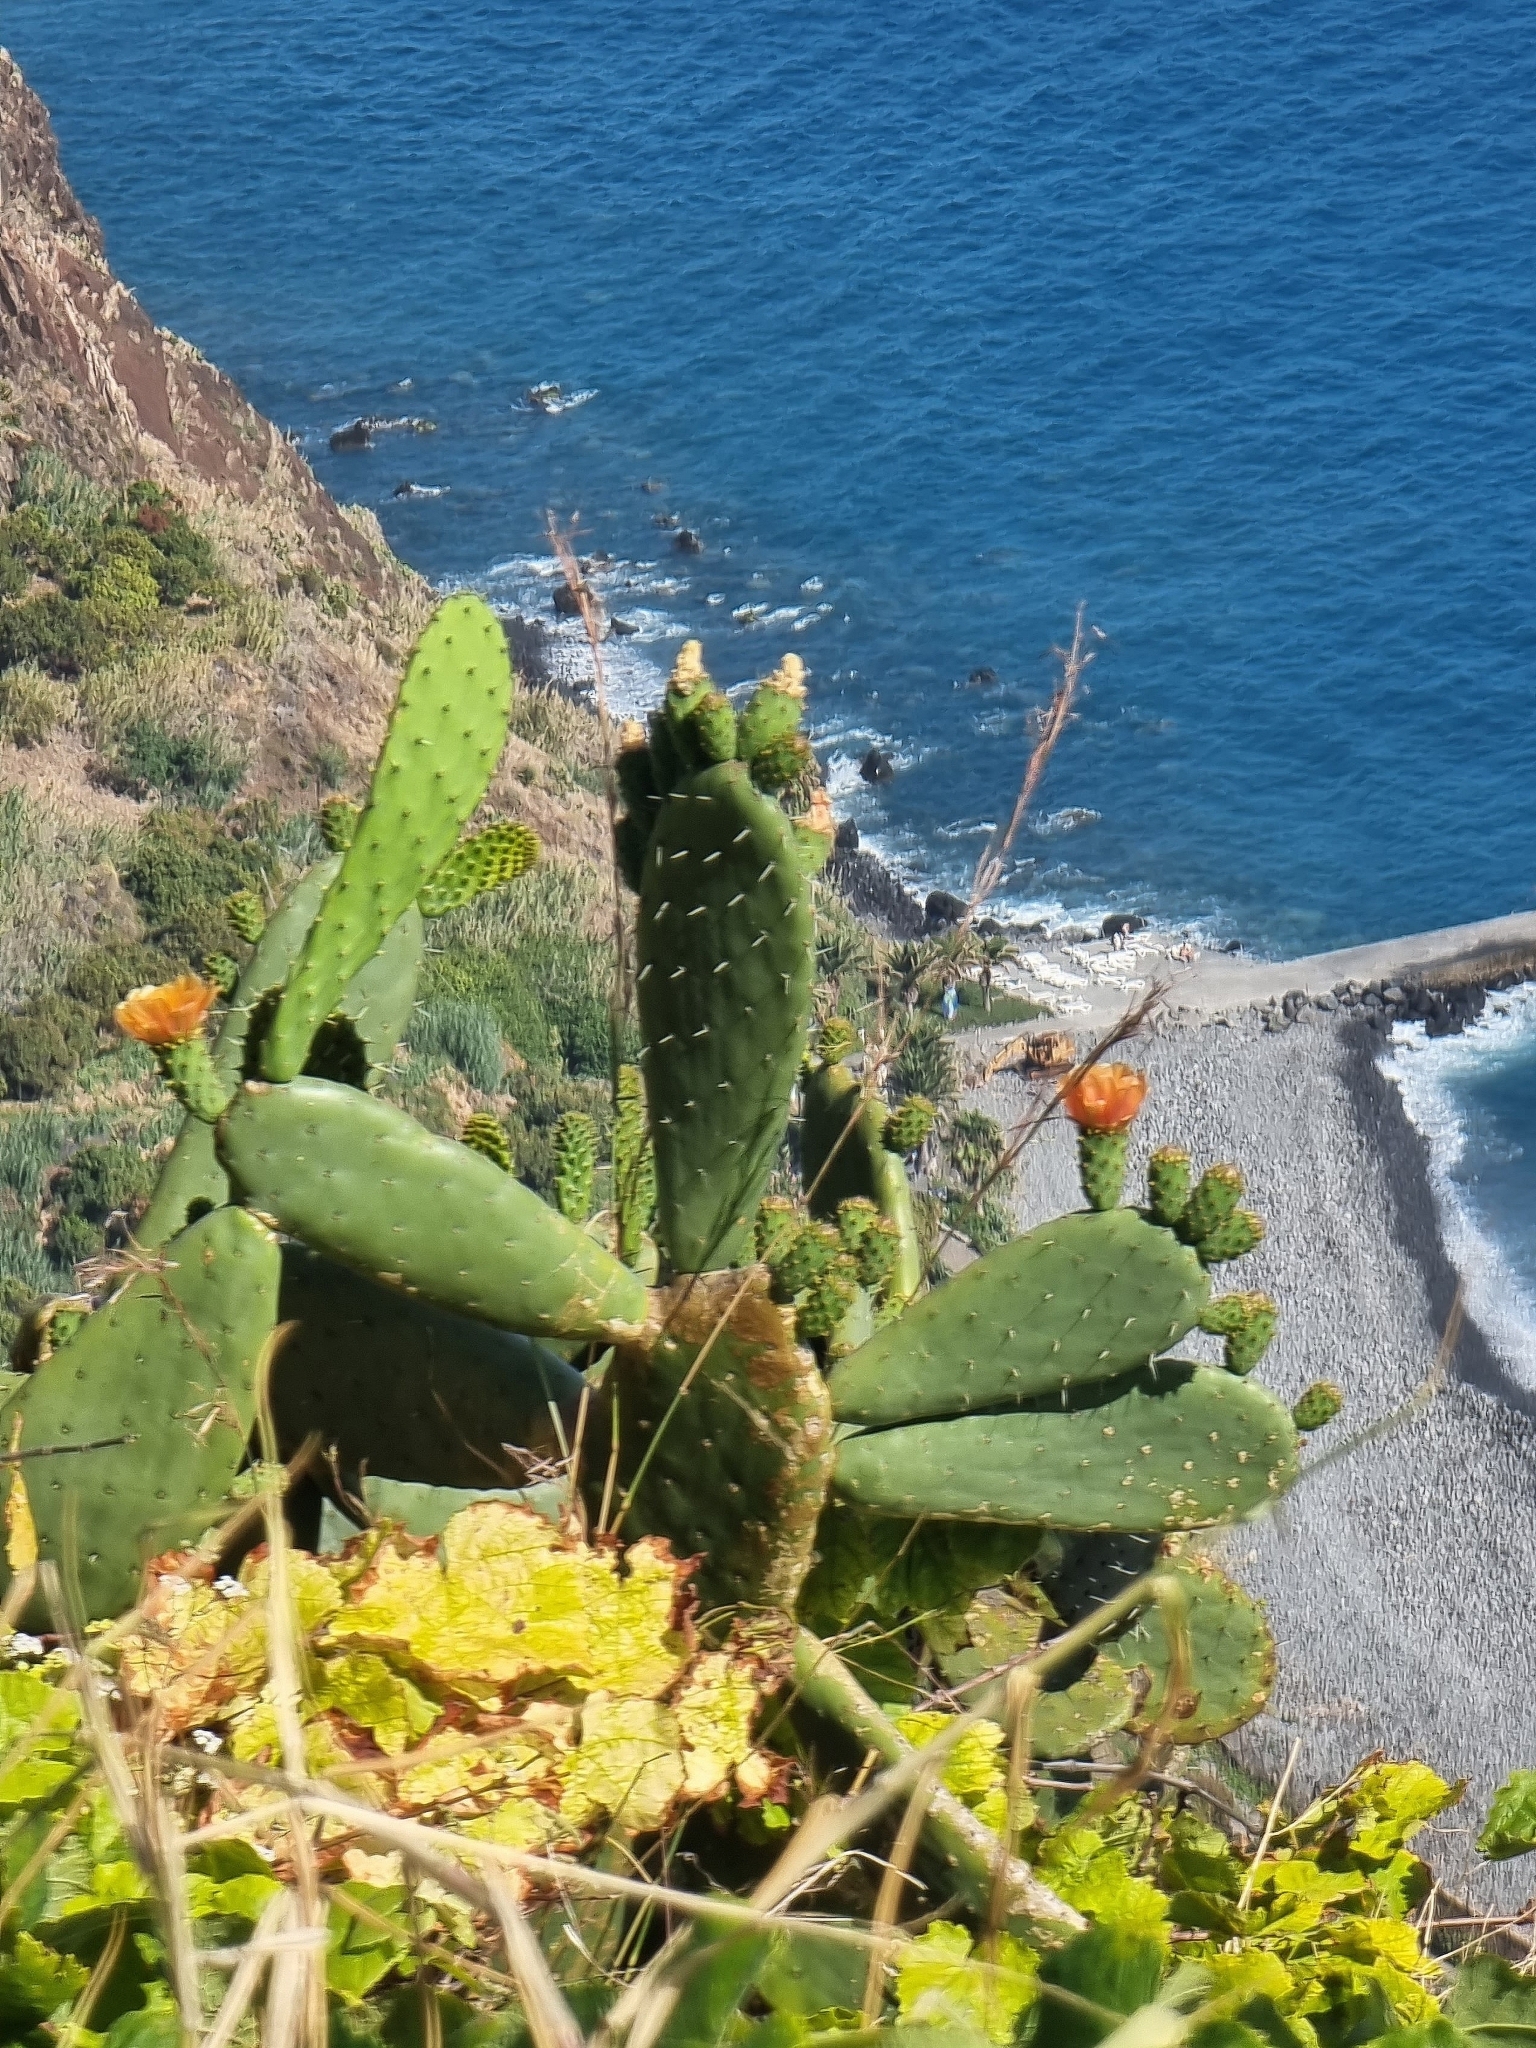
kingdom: Plantae
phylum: Tracheophyta
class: Magnoliopsida
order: Caryophyllales
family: Cactaceae
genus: Opuntia
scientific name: Opuntia ficus-indica
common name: Barbary fig
